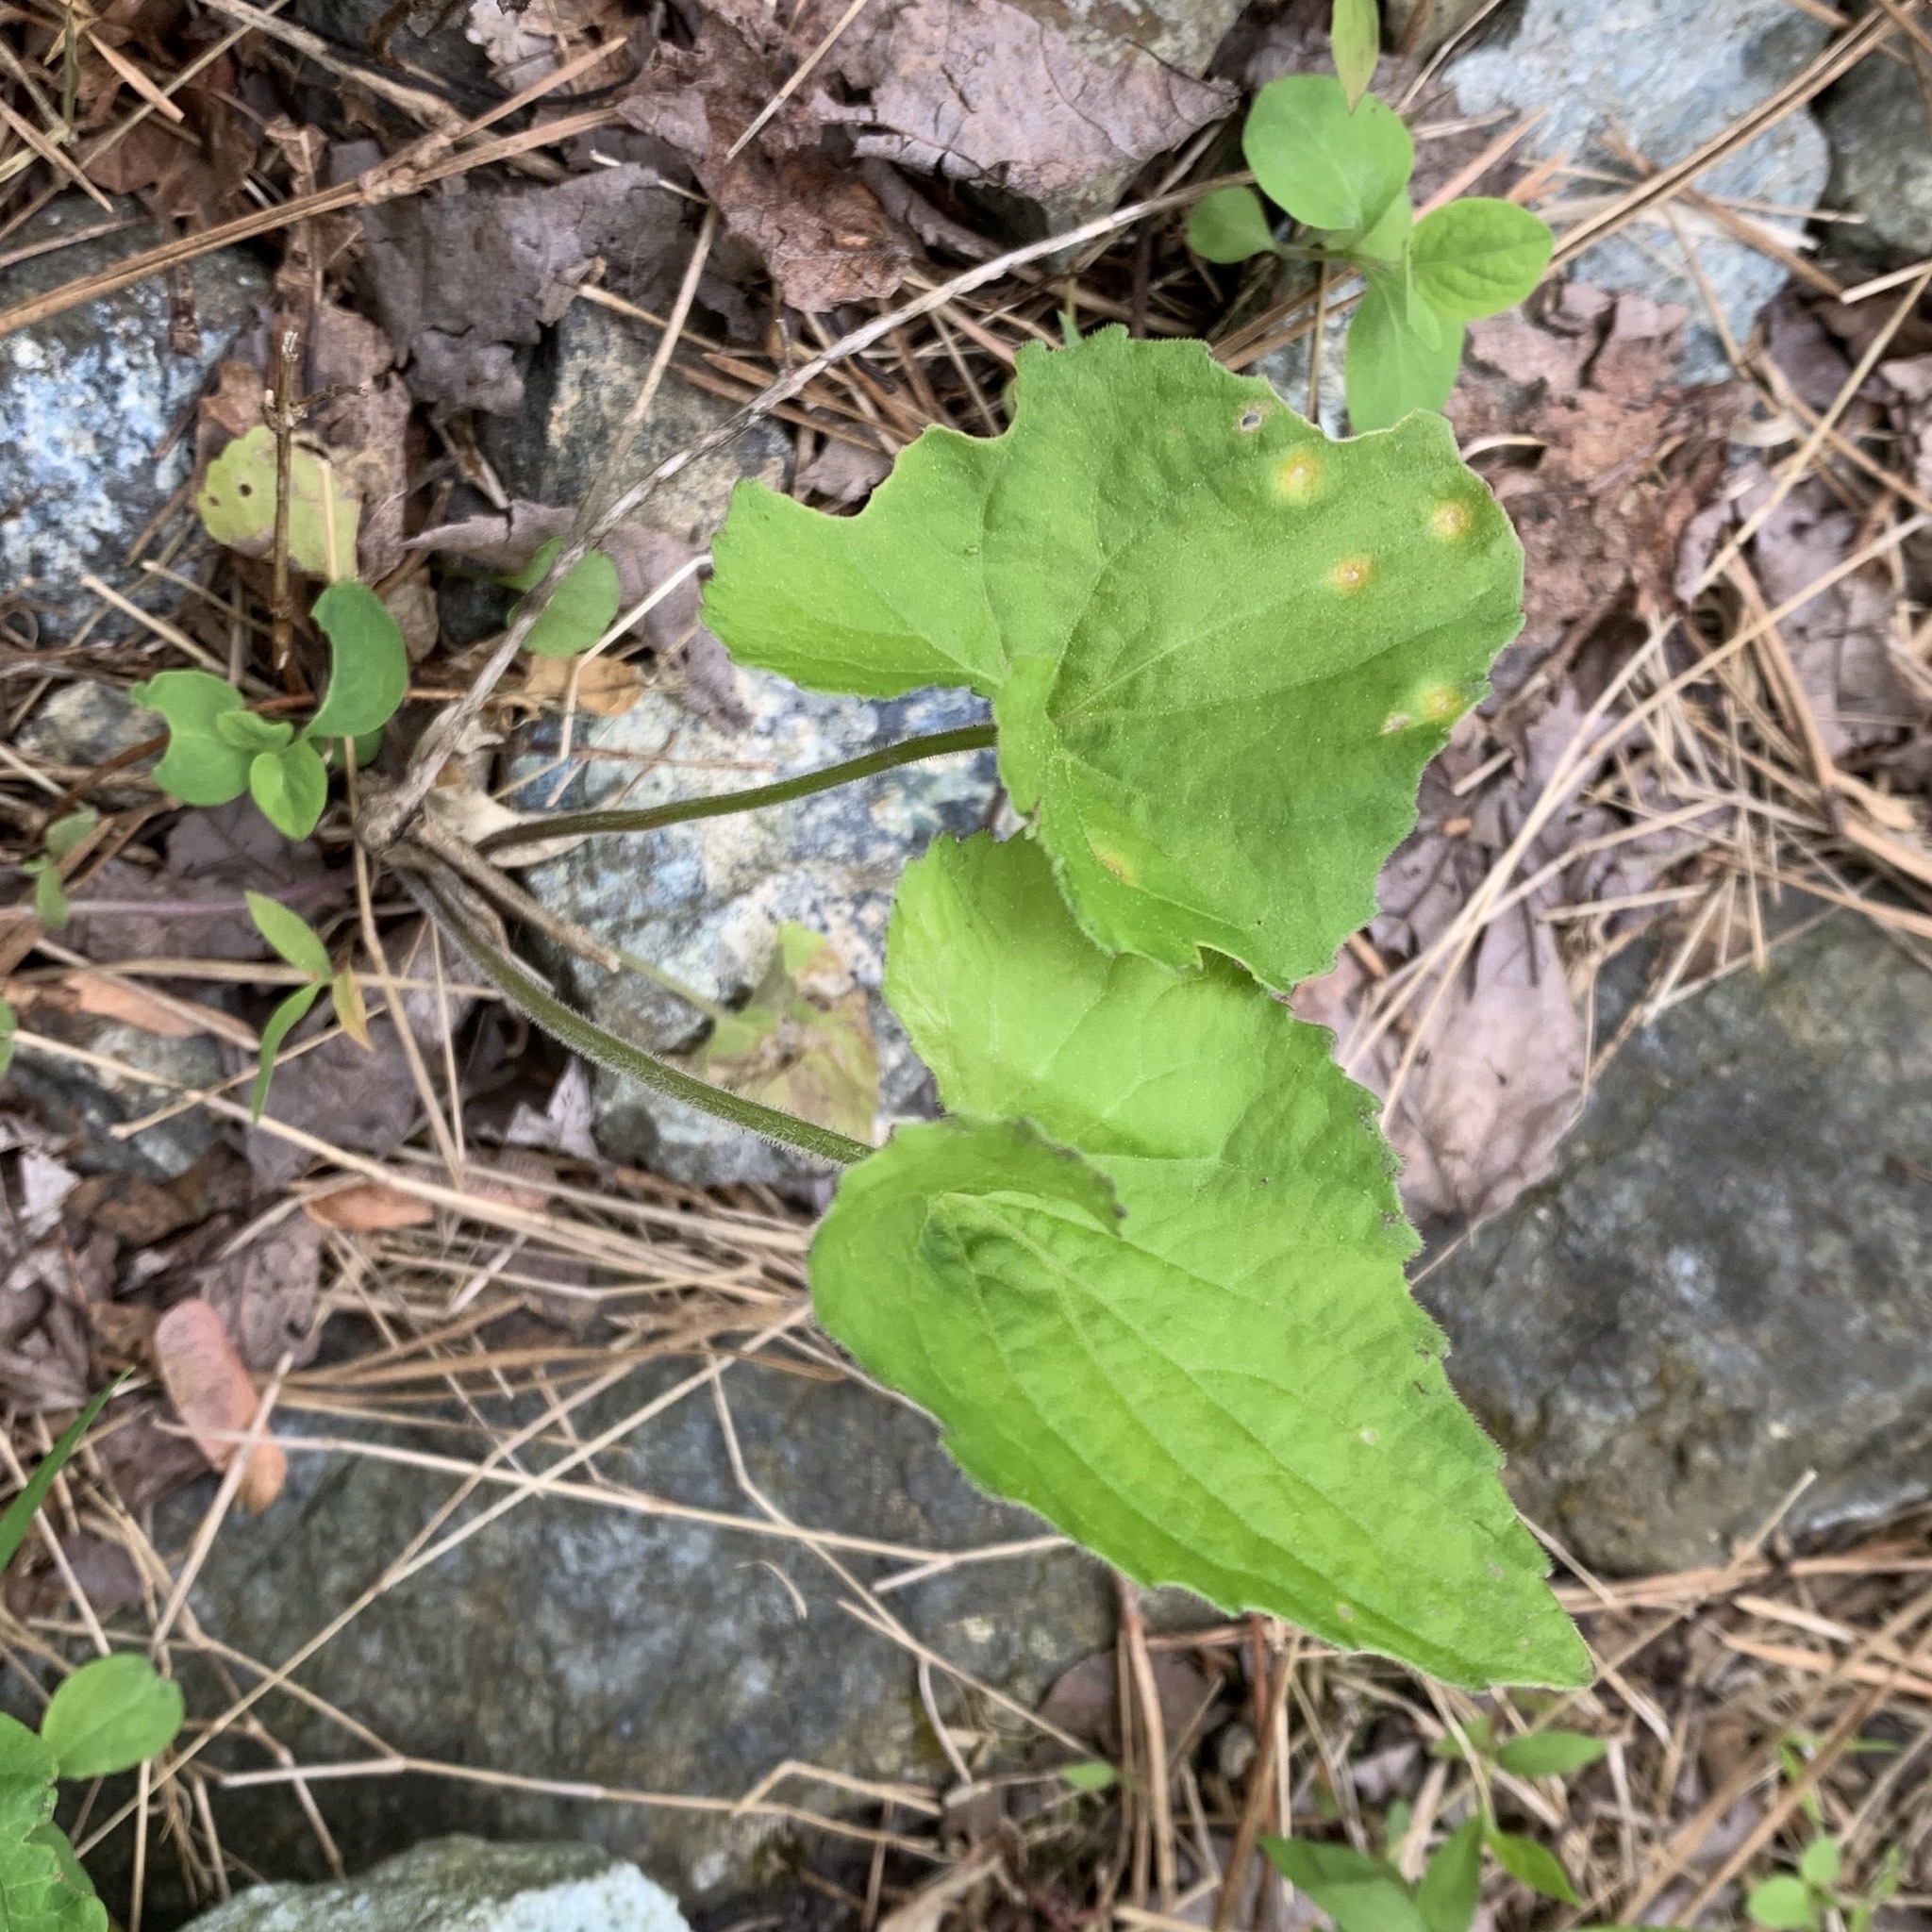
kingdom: Fungi
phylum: Basidiomycota
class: Pucciniomycetes
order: Pucciniales
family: Pucciniaceae
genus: Puccinia
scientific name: Puccinia violae
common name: Violet rust
